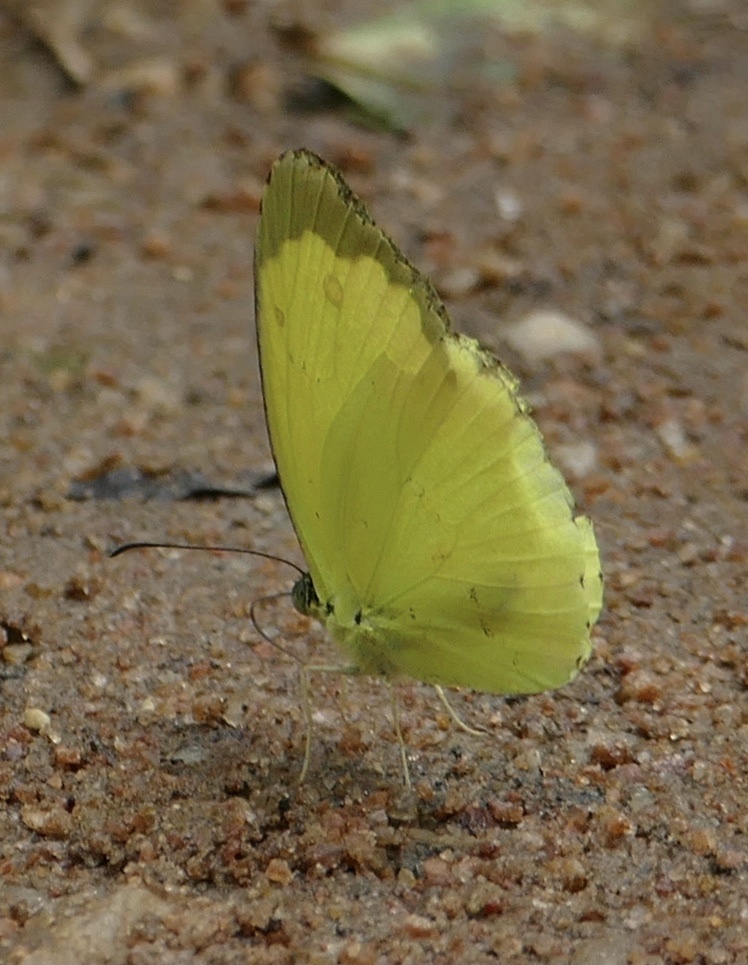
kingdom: Animalia
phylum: Arthropoda
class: Insecta
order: Lepidoptera
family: Pieridae
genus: Eurema
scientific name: Eurema senegalensis
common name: Forest grass yellow
